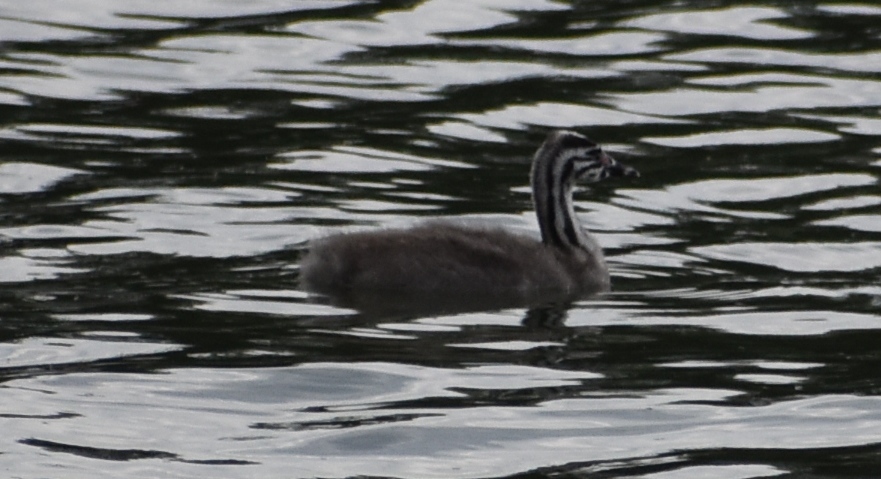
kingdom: Animalia
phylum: Chordata
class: Aves
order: Podicipediformes
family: Podicipedidae
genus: Podiceps
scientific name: Podiceps cristatus
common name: Great crested grebe
